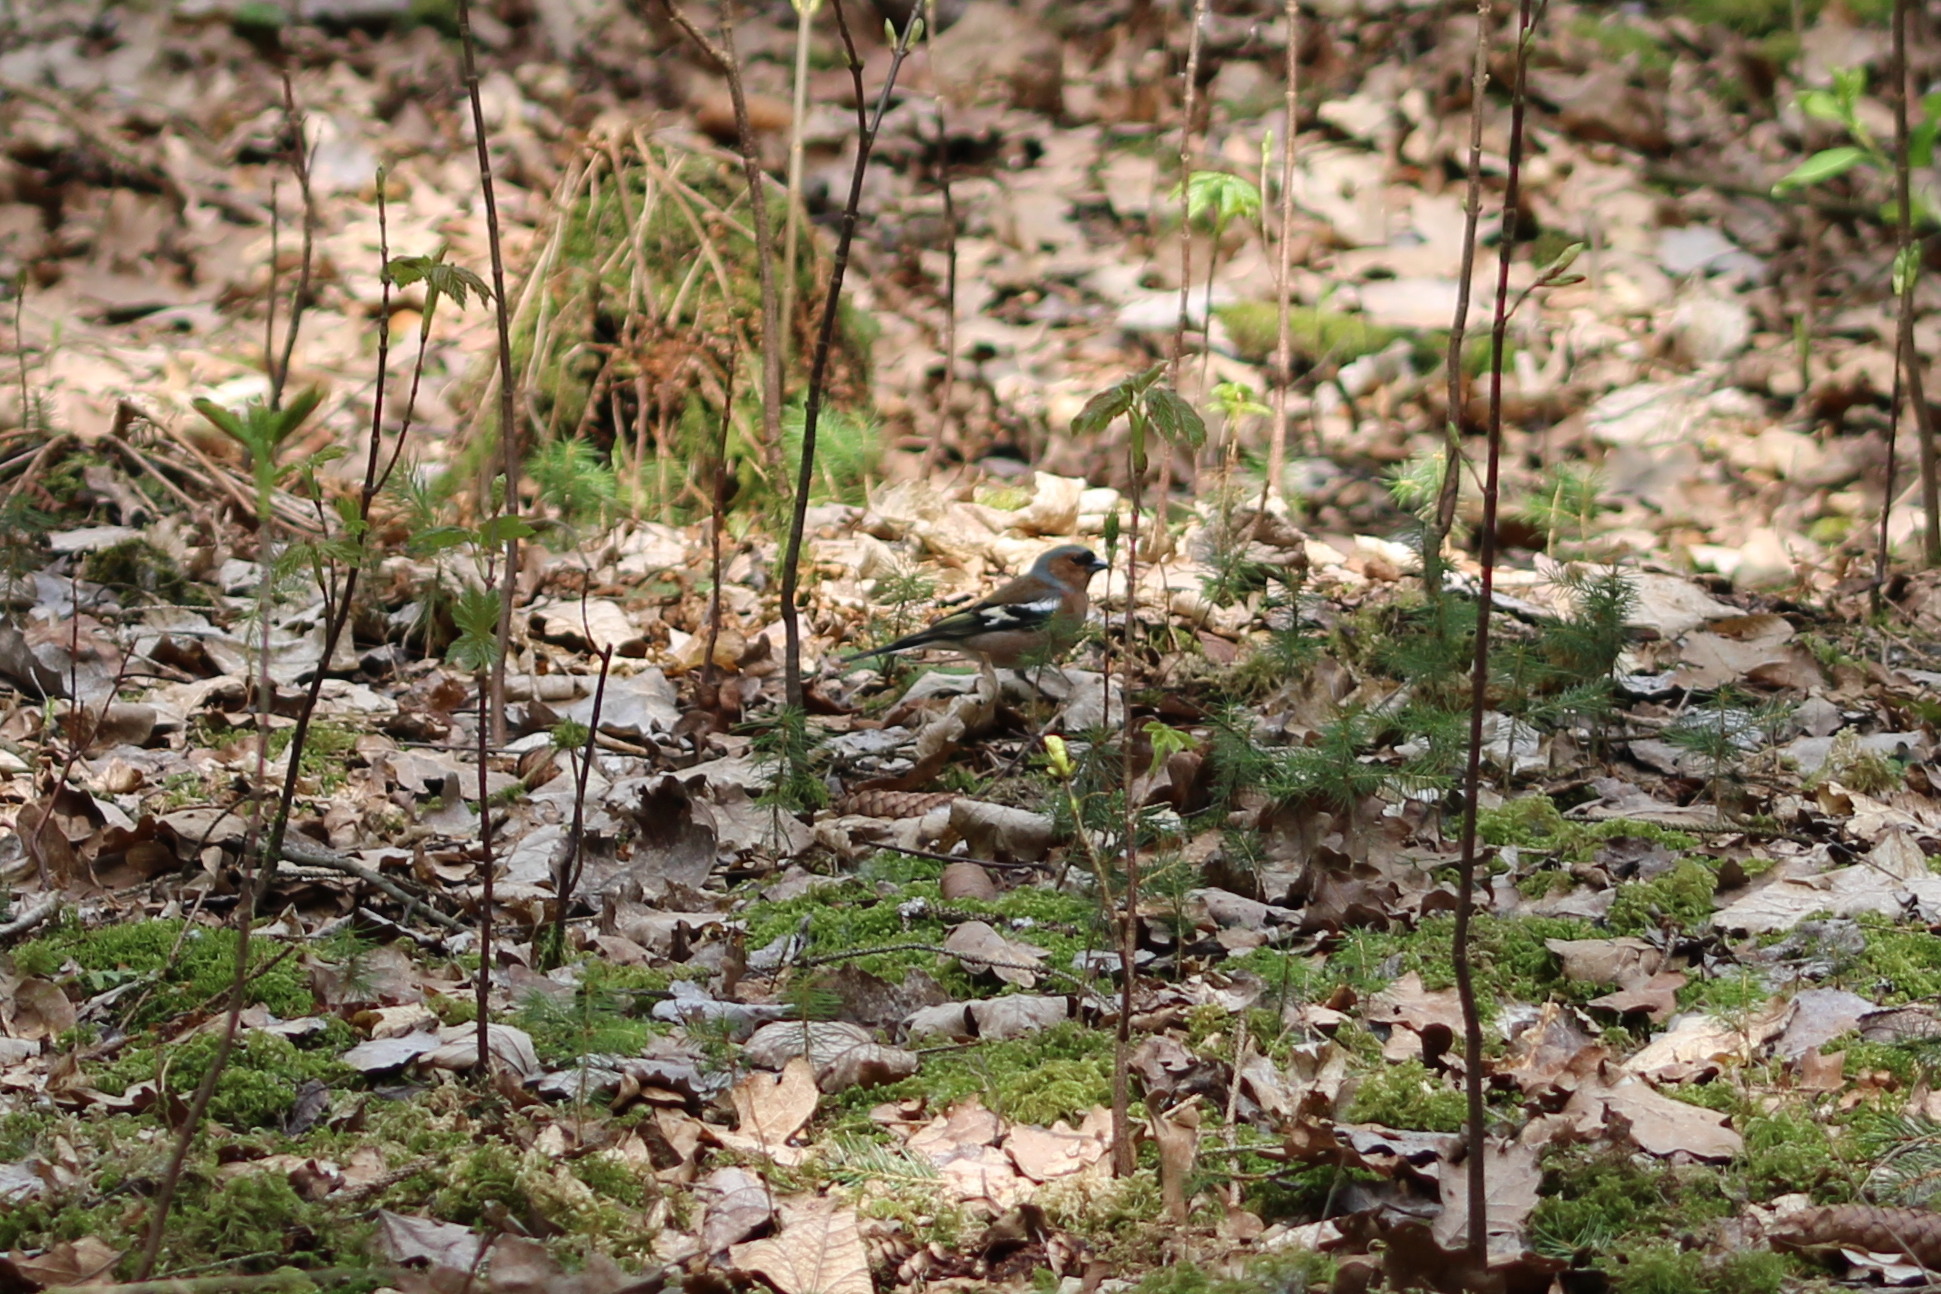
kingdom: Animalia
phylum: Chordata
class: Aves
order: Passeriformes
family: Fringillidae
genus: Fringilla
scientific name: Fringilla coelebs
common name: Common chaffinch
